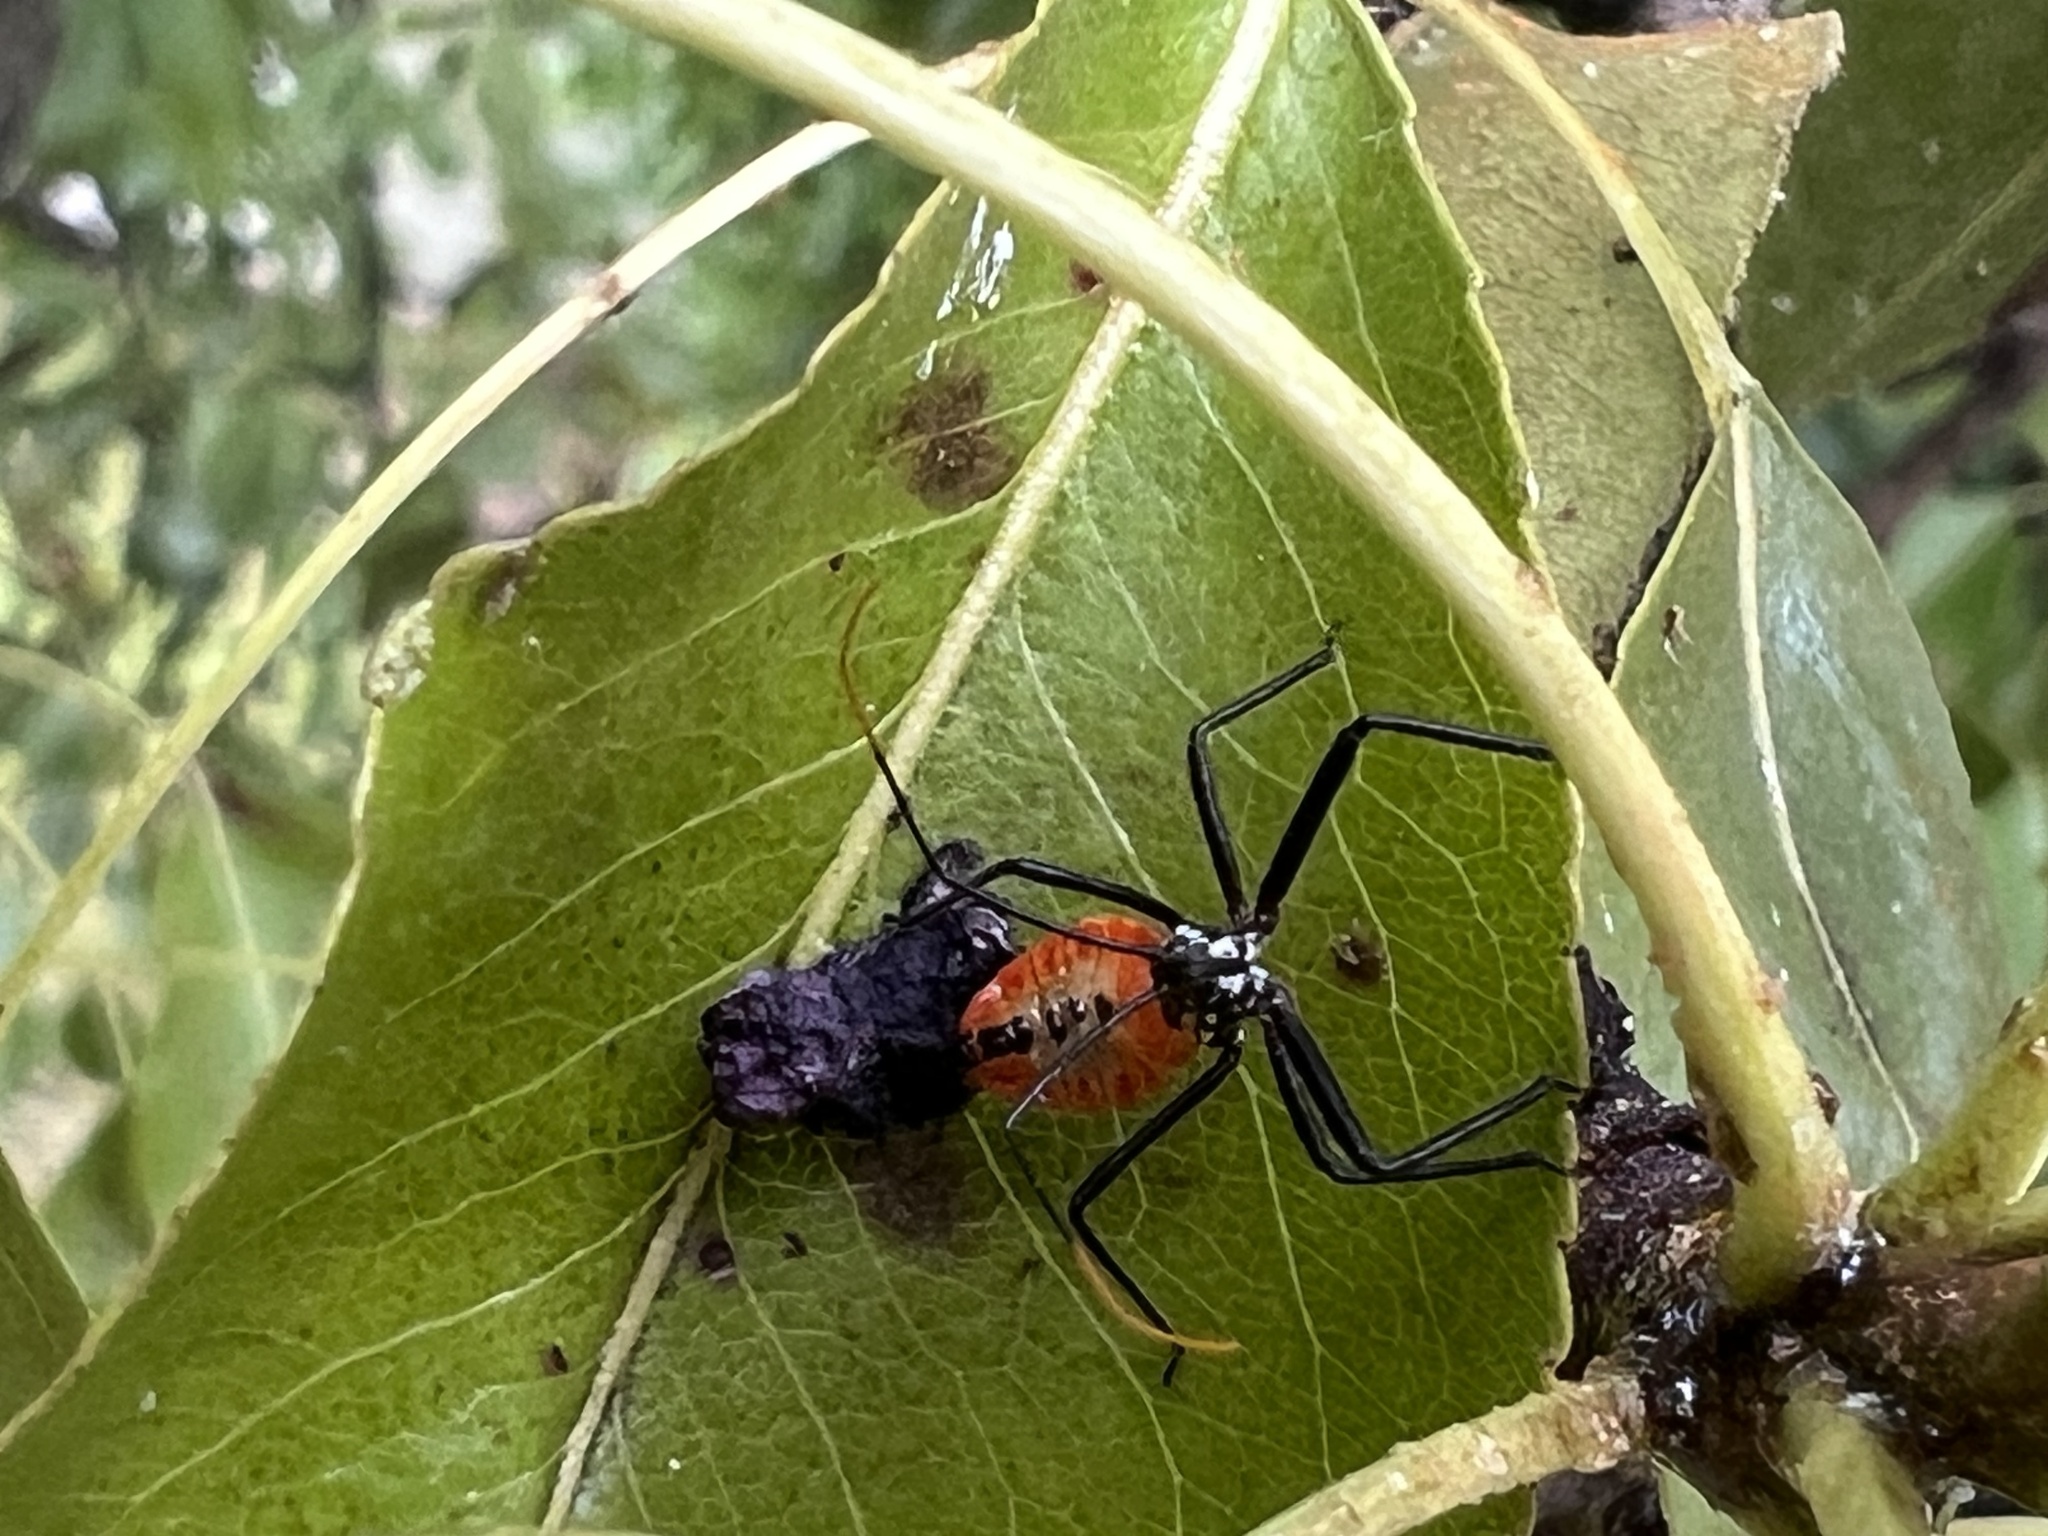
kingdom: Animalia
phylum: Arthropoda
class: Insecta
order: Hemiptera
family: Reduviidae
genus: Arilus
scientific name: Arilus cristatus
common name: North american wheel bug
